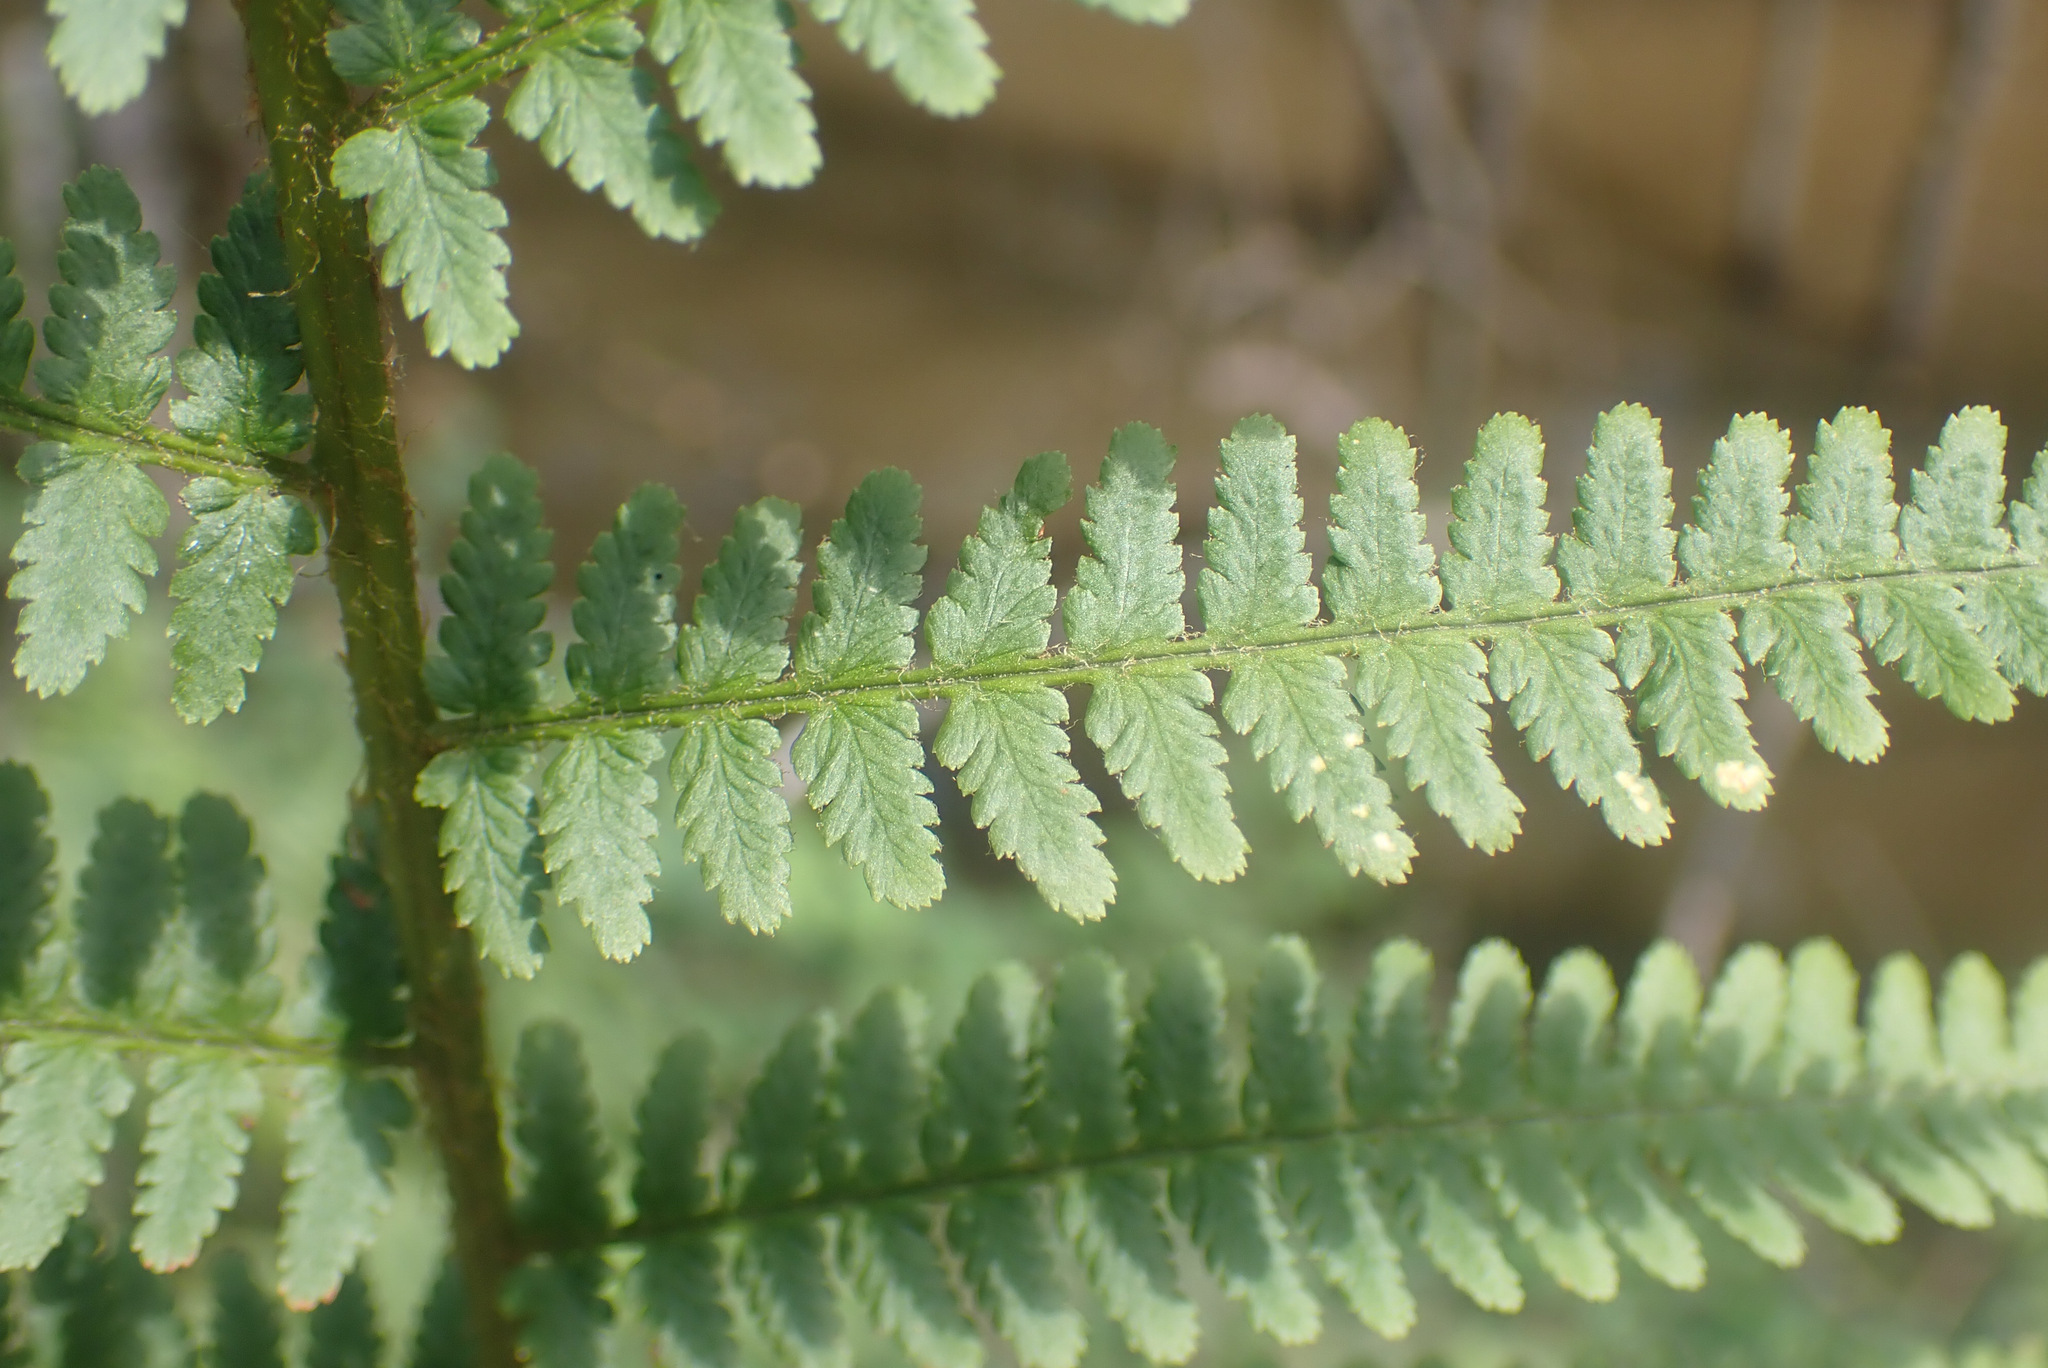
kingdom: Plantae
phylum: Tracheophyta
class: Polypodiopsida
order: Polypodiales
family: Dryopteridaceae
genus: Dryopteris
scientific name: Dryopteris filix-mas
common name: Male fern
